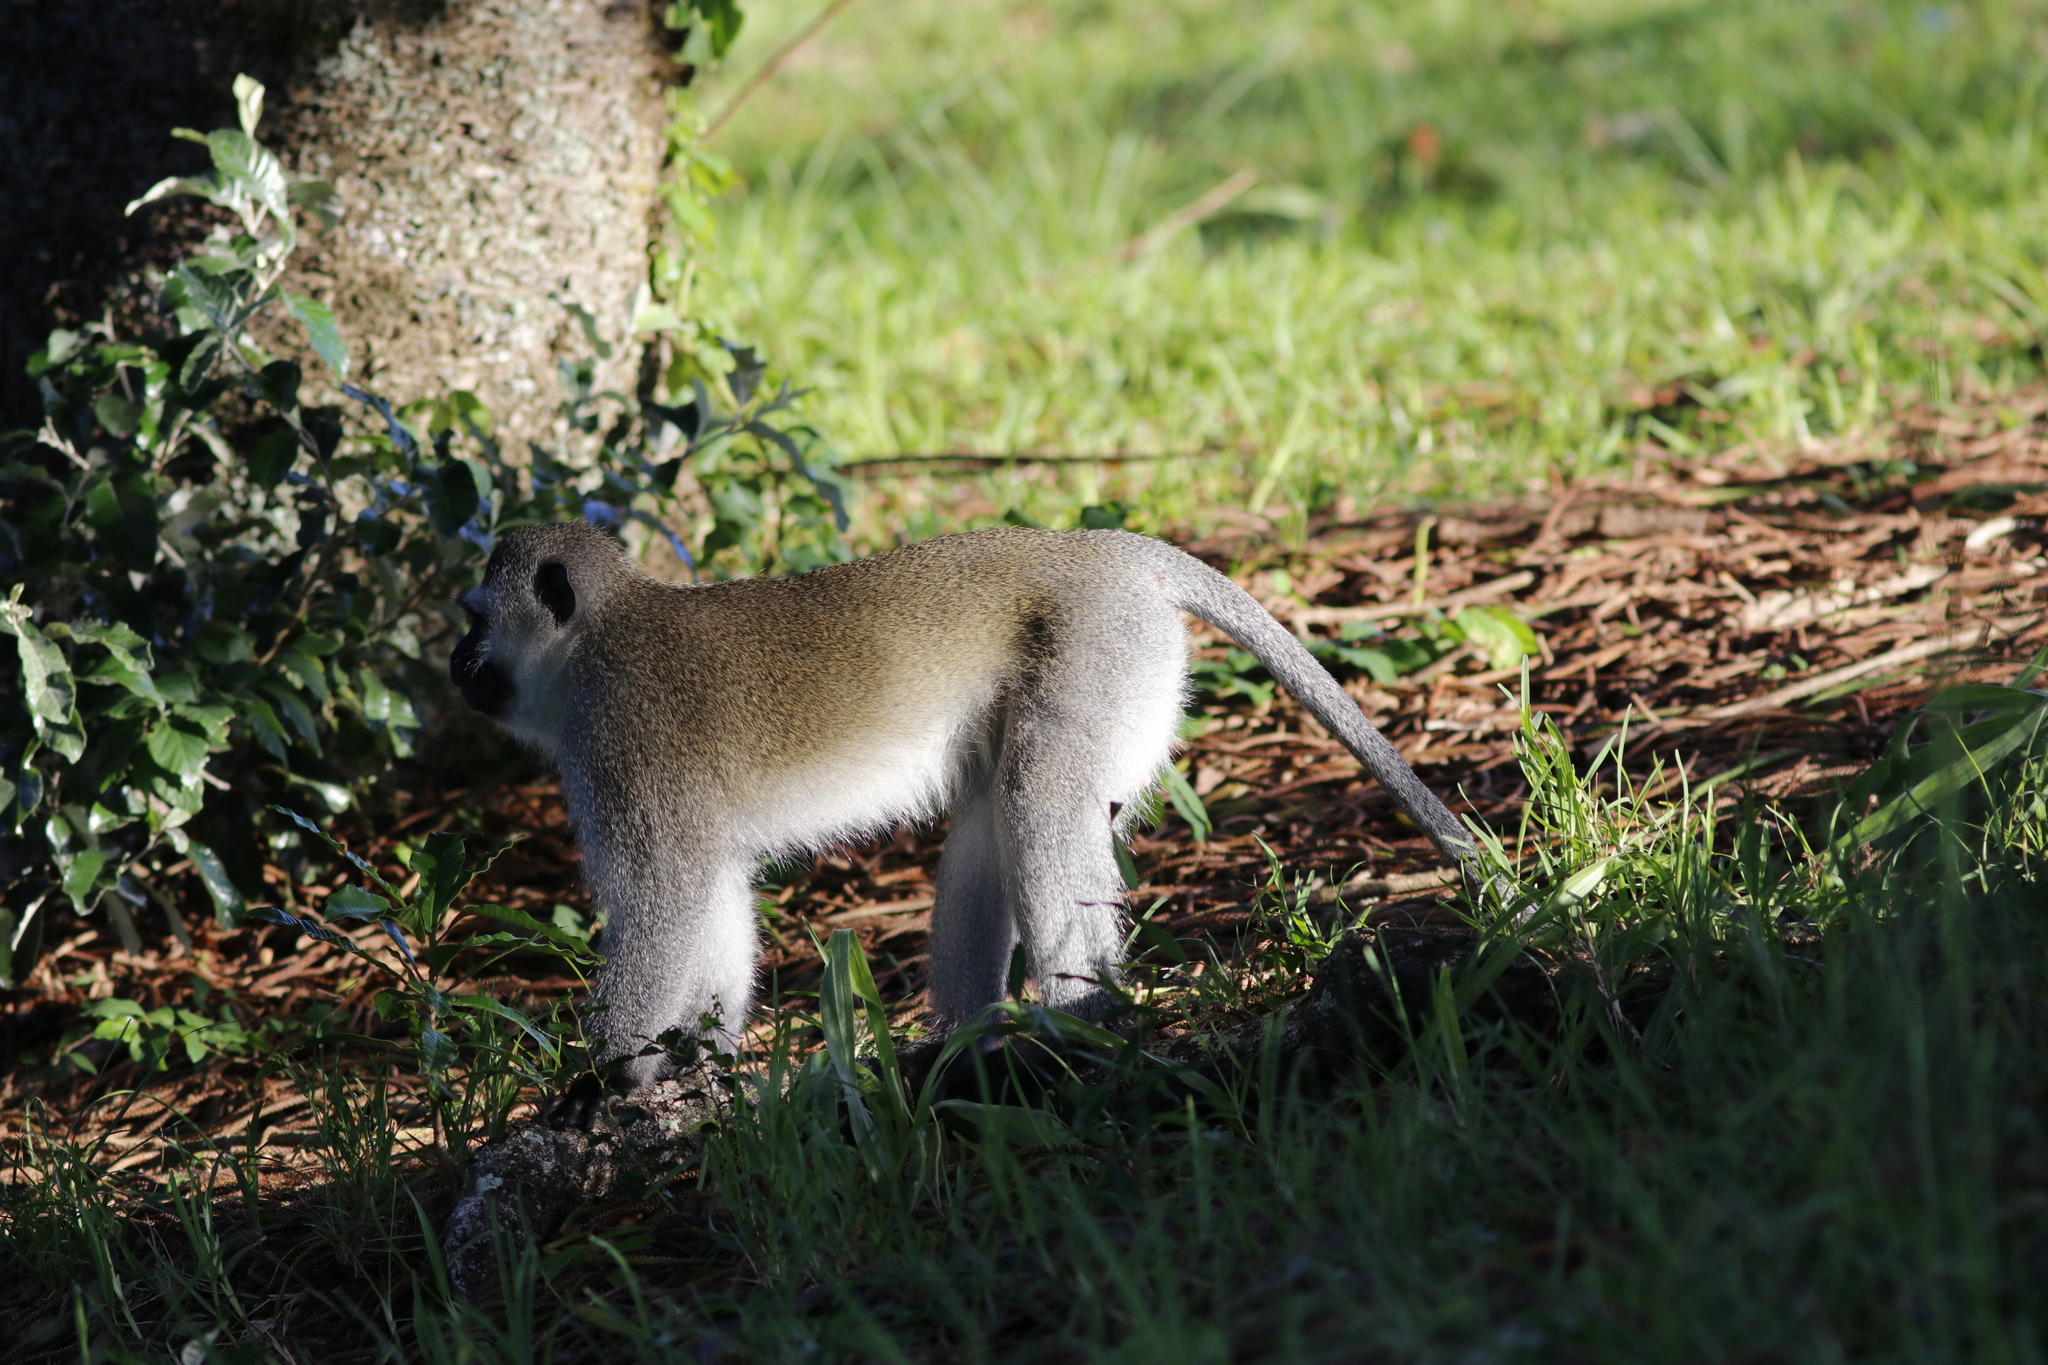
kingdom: Animalia
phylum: Chordata
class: Mammalia
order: Primates
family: Cercopithecidae
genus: Chlorocebus
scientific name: Chlorocebus pygerythrus
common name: Vervet monkey
